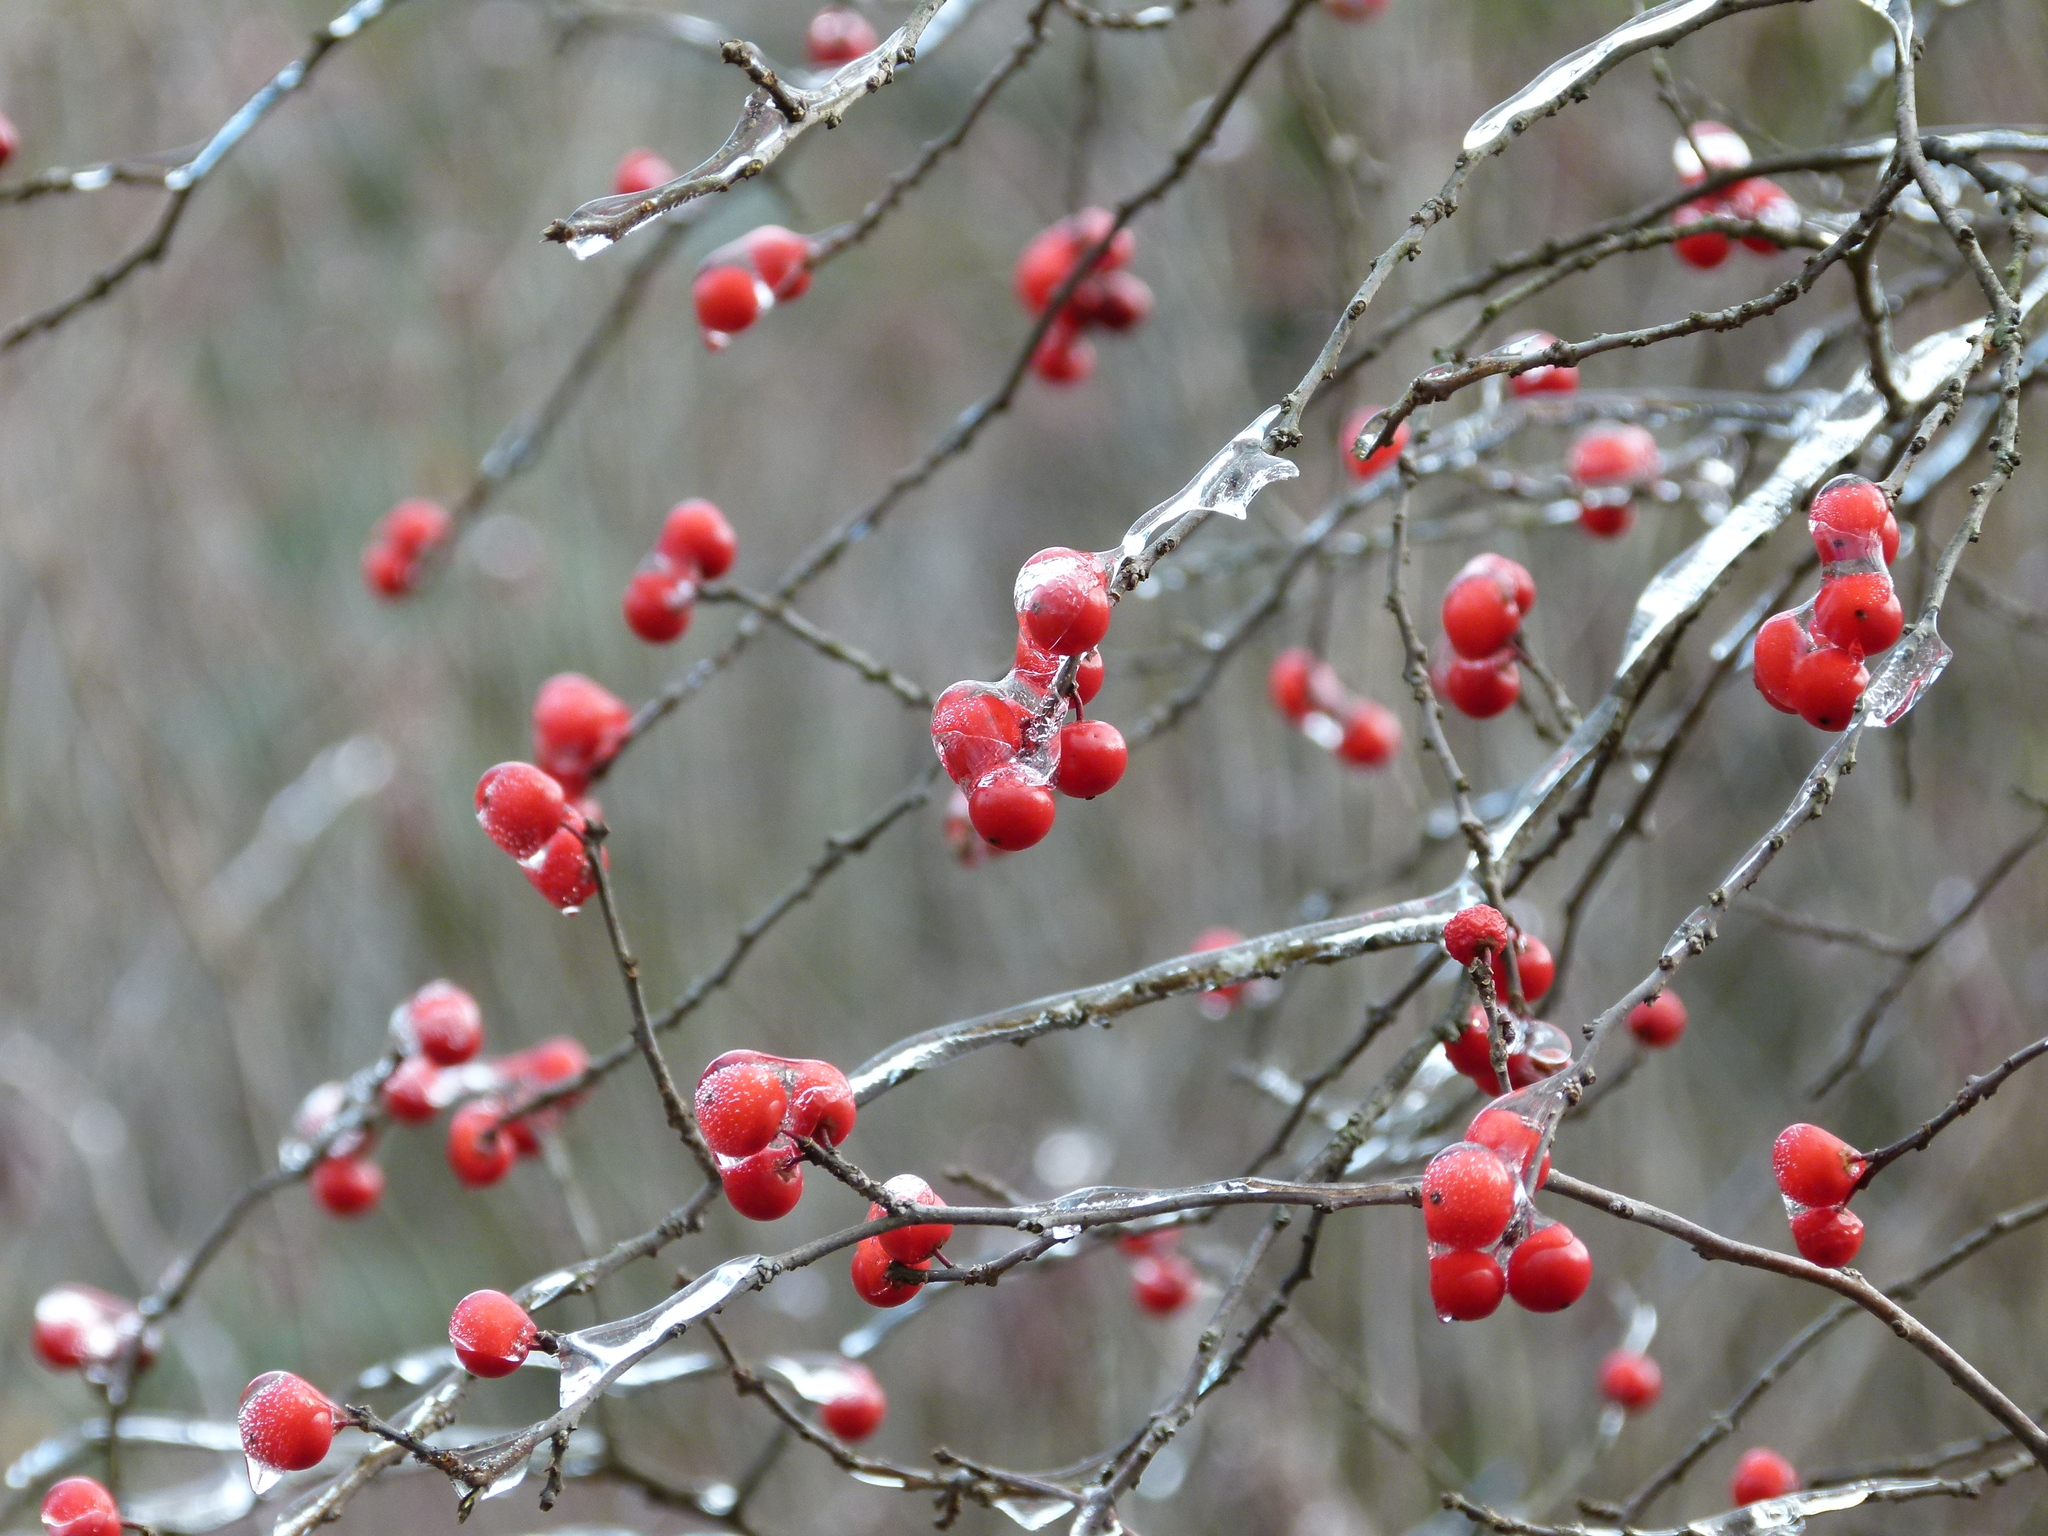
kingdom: Plantae
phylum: Tracheophyta
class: Magnoliopsida
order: Aquifoliales
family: Aquifoliaceae
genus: Ilex
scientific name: Ilex verticillata
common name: Virginia winterberry
